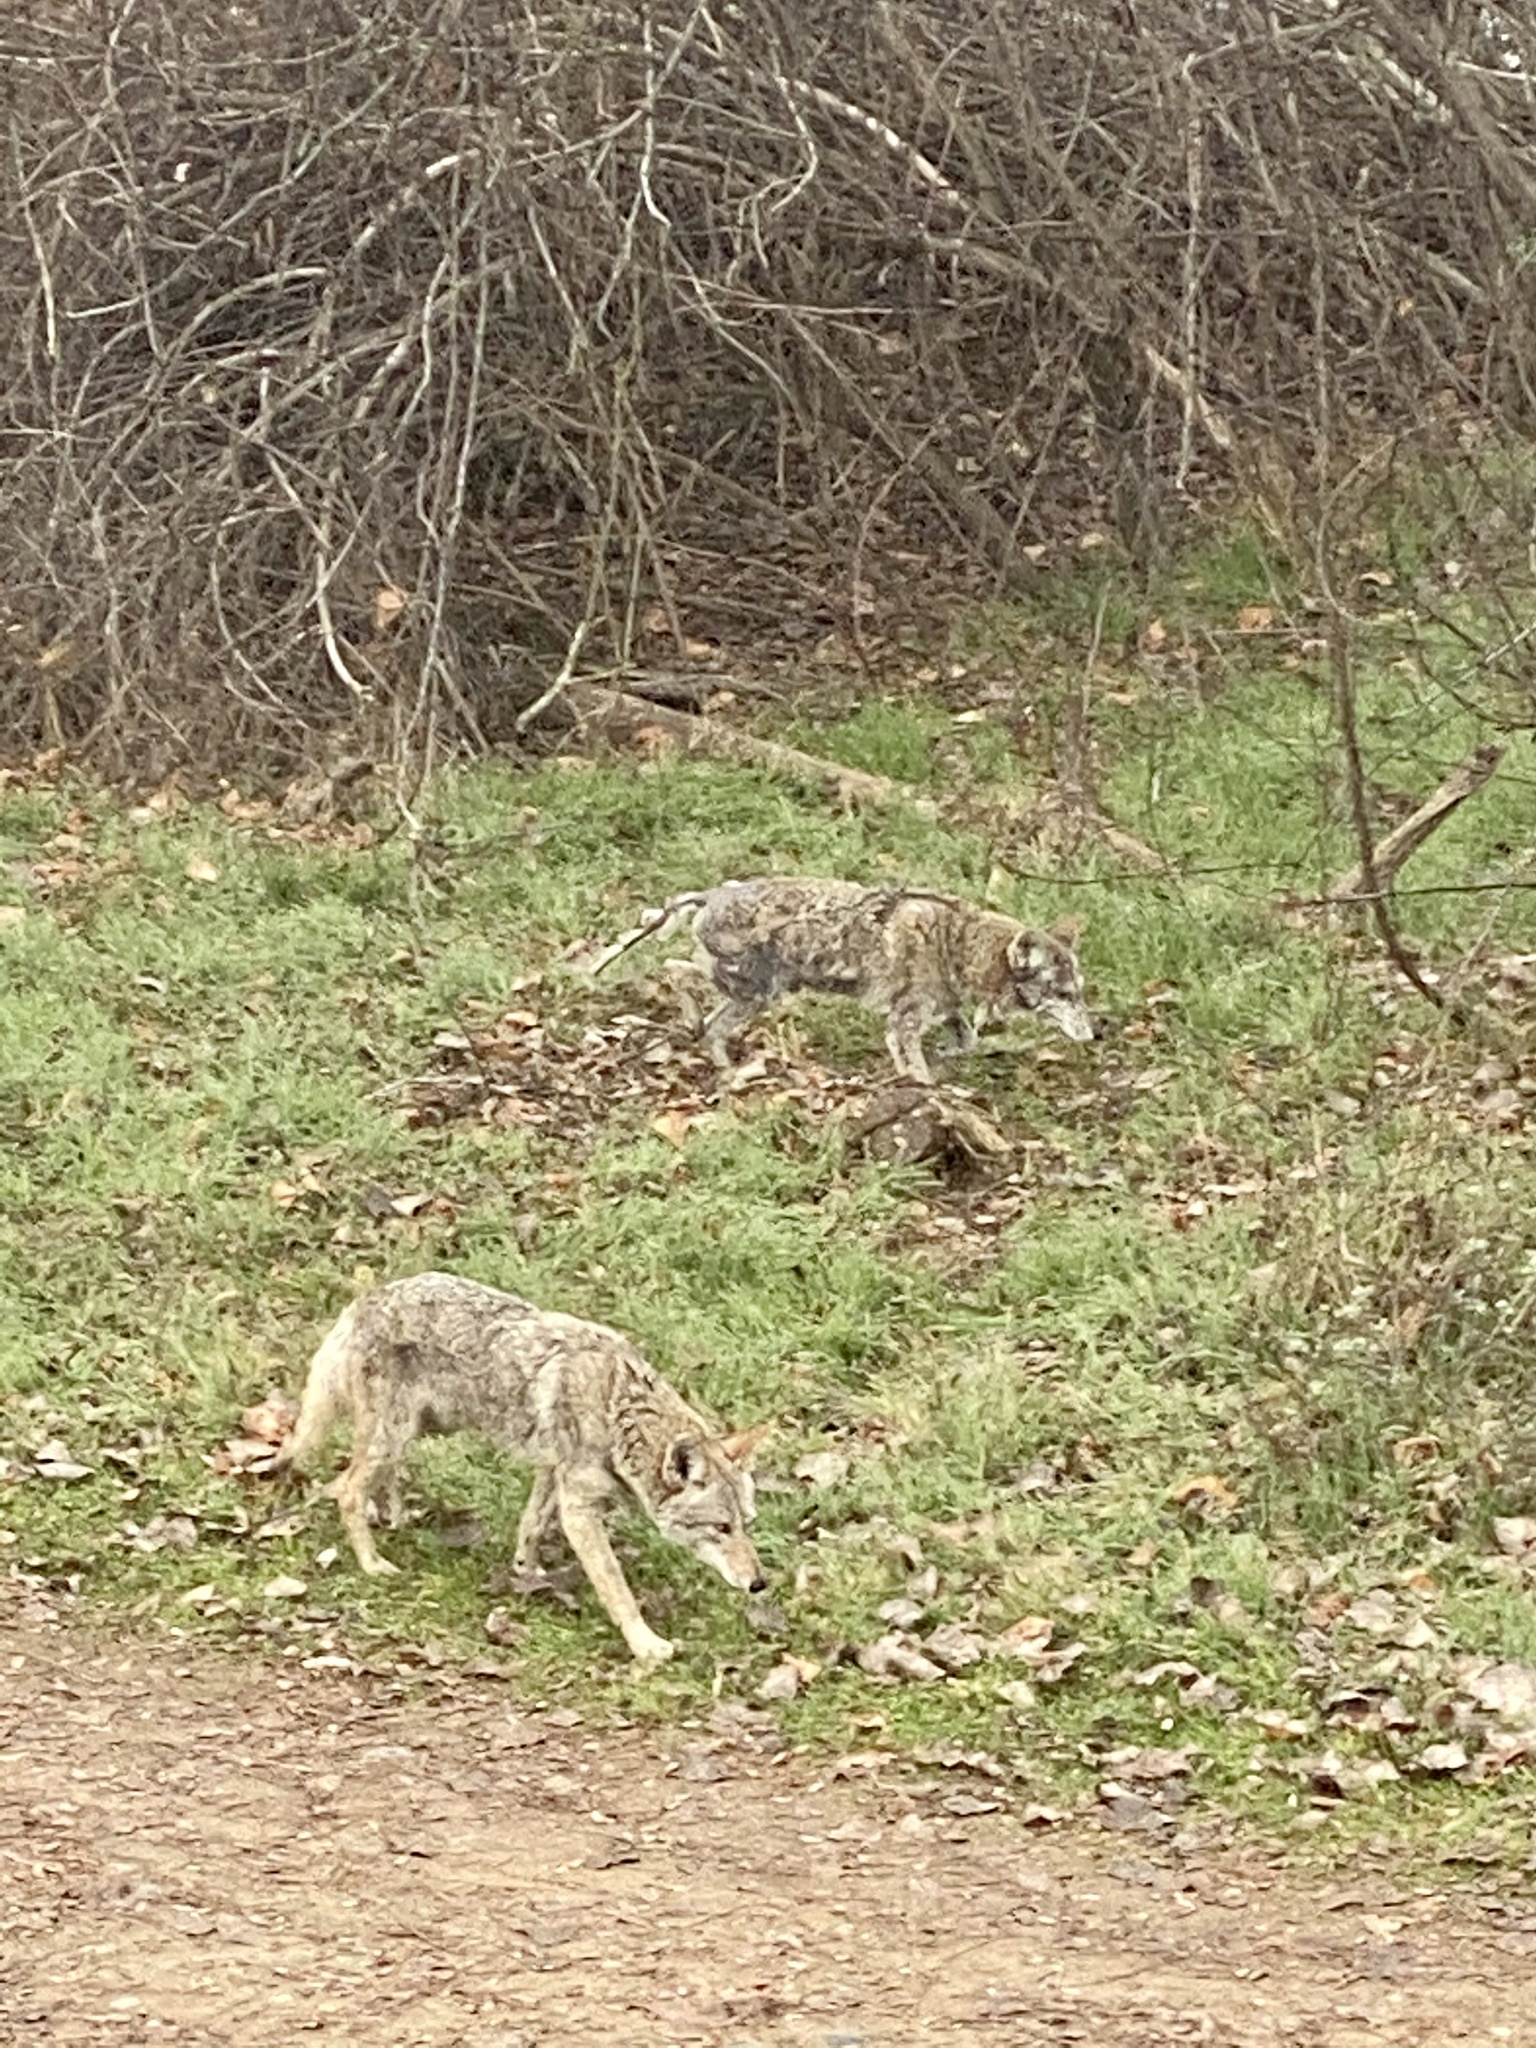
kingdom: Animalia
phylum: Chordata
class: Mammalia
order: Carnivora
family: Canidae
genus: Canis
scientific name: Canis latrans
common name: Coyote
